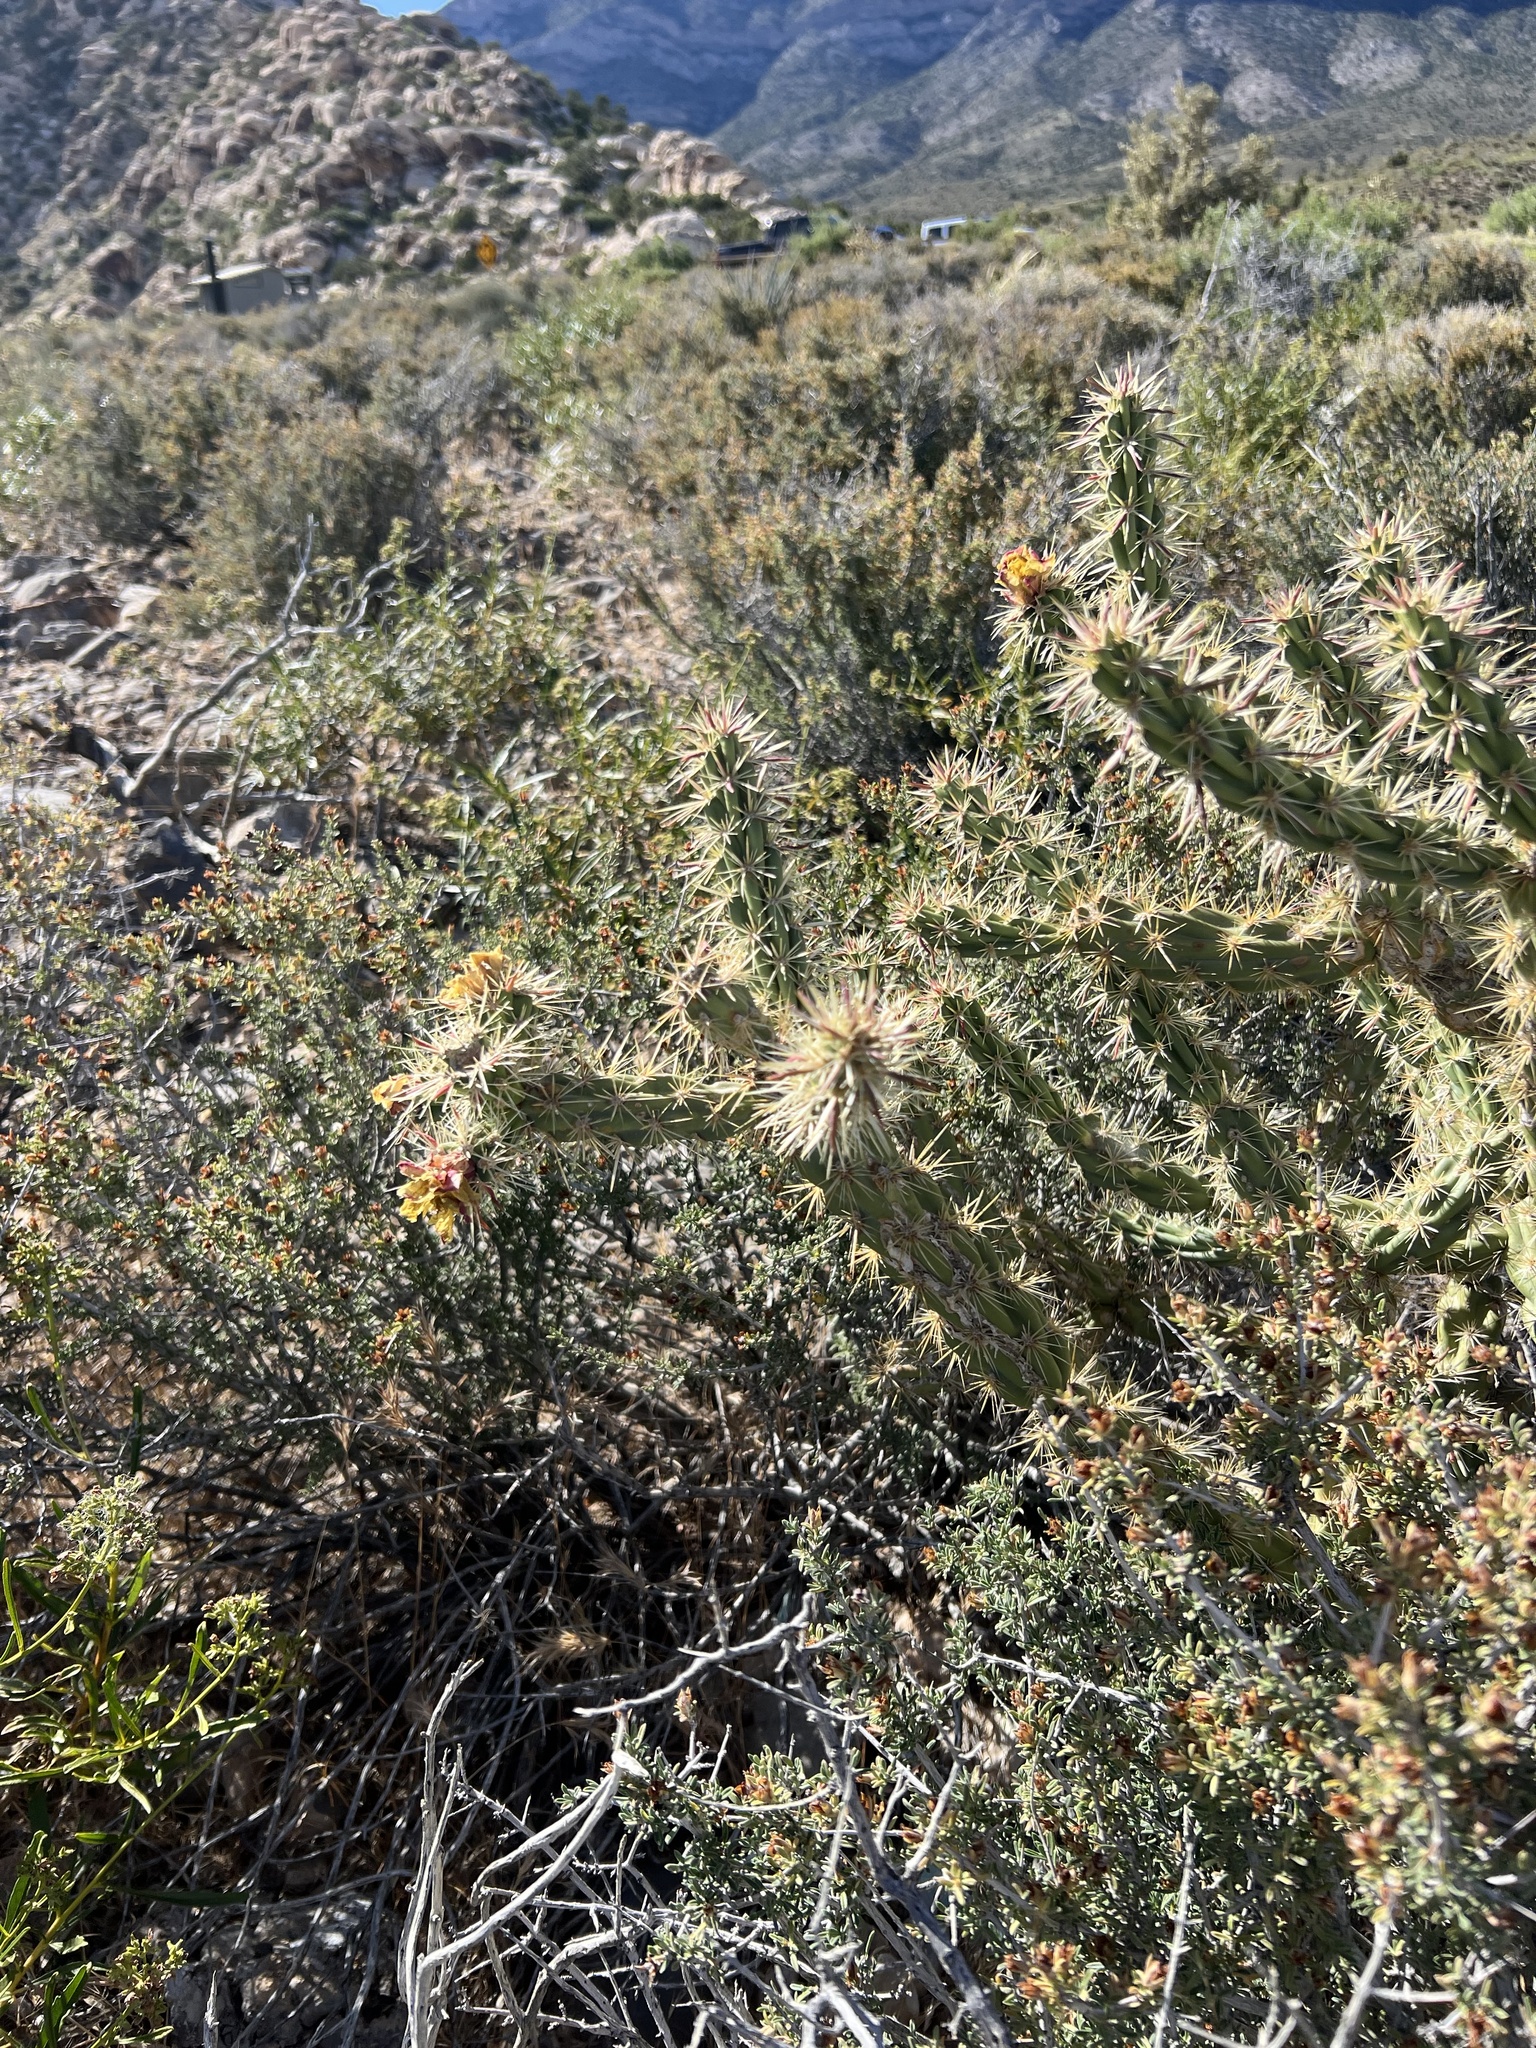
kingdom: Plantae
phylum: Tracheophyta
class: Magnoliopsida
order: Caryophyllales
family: Cactaceae
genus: Cylindropuntia
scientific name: Cylindropuntia acanthocarpa
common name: Buckhorn cholla
